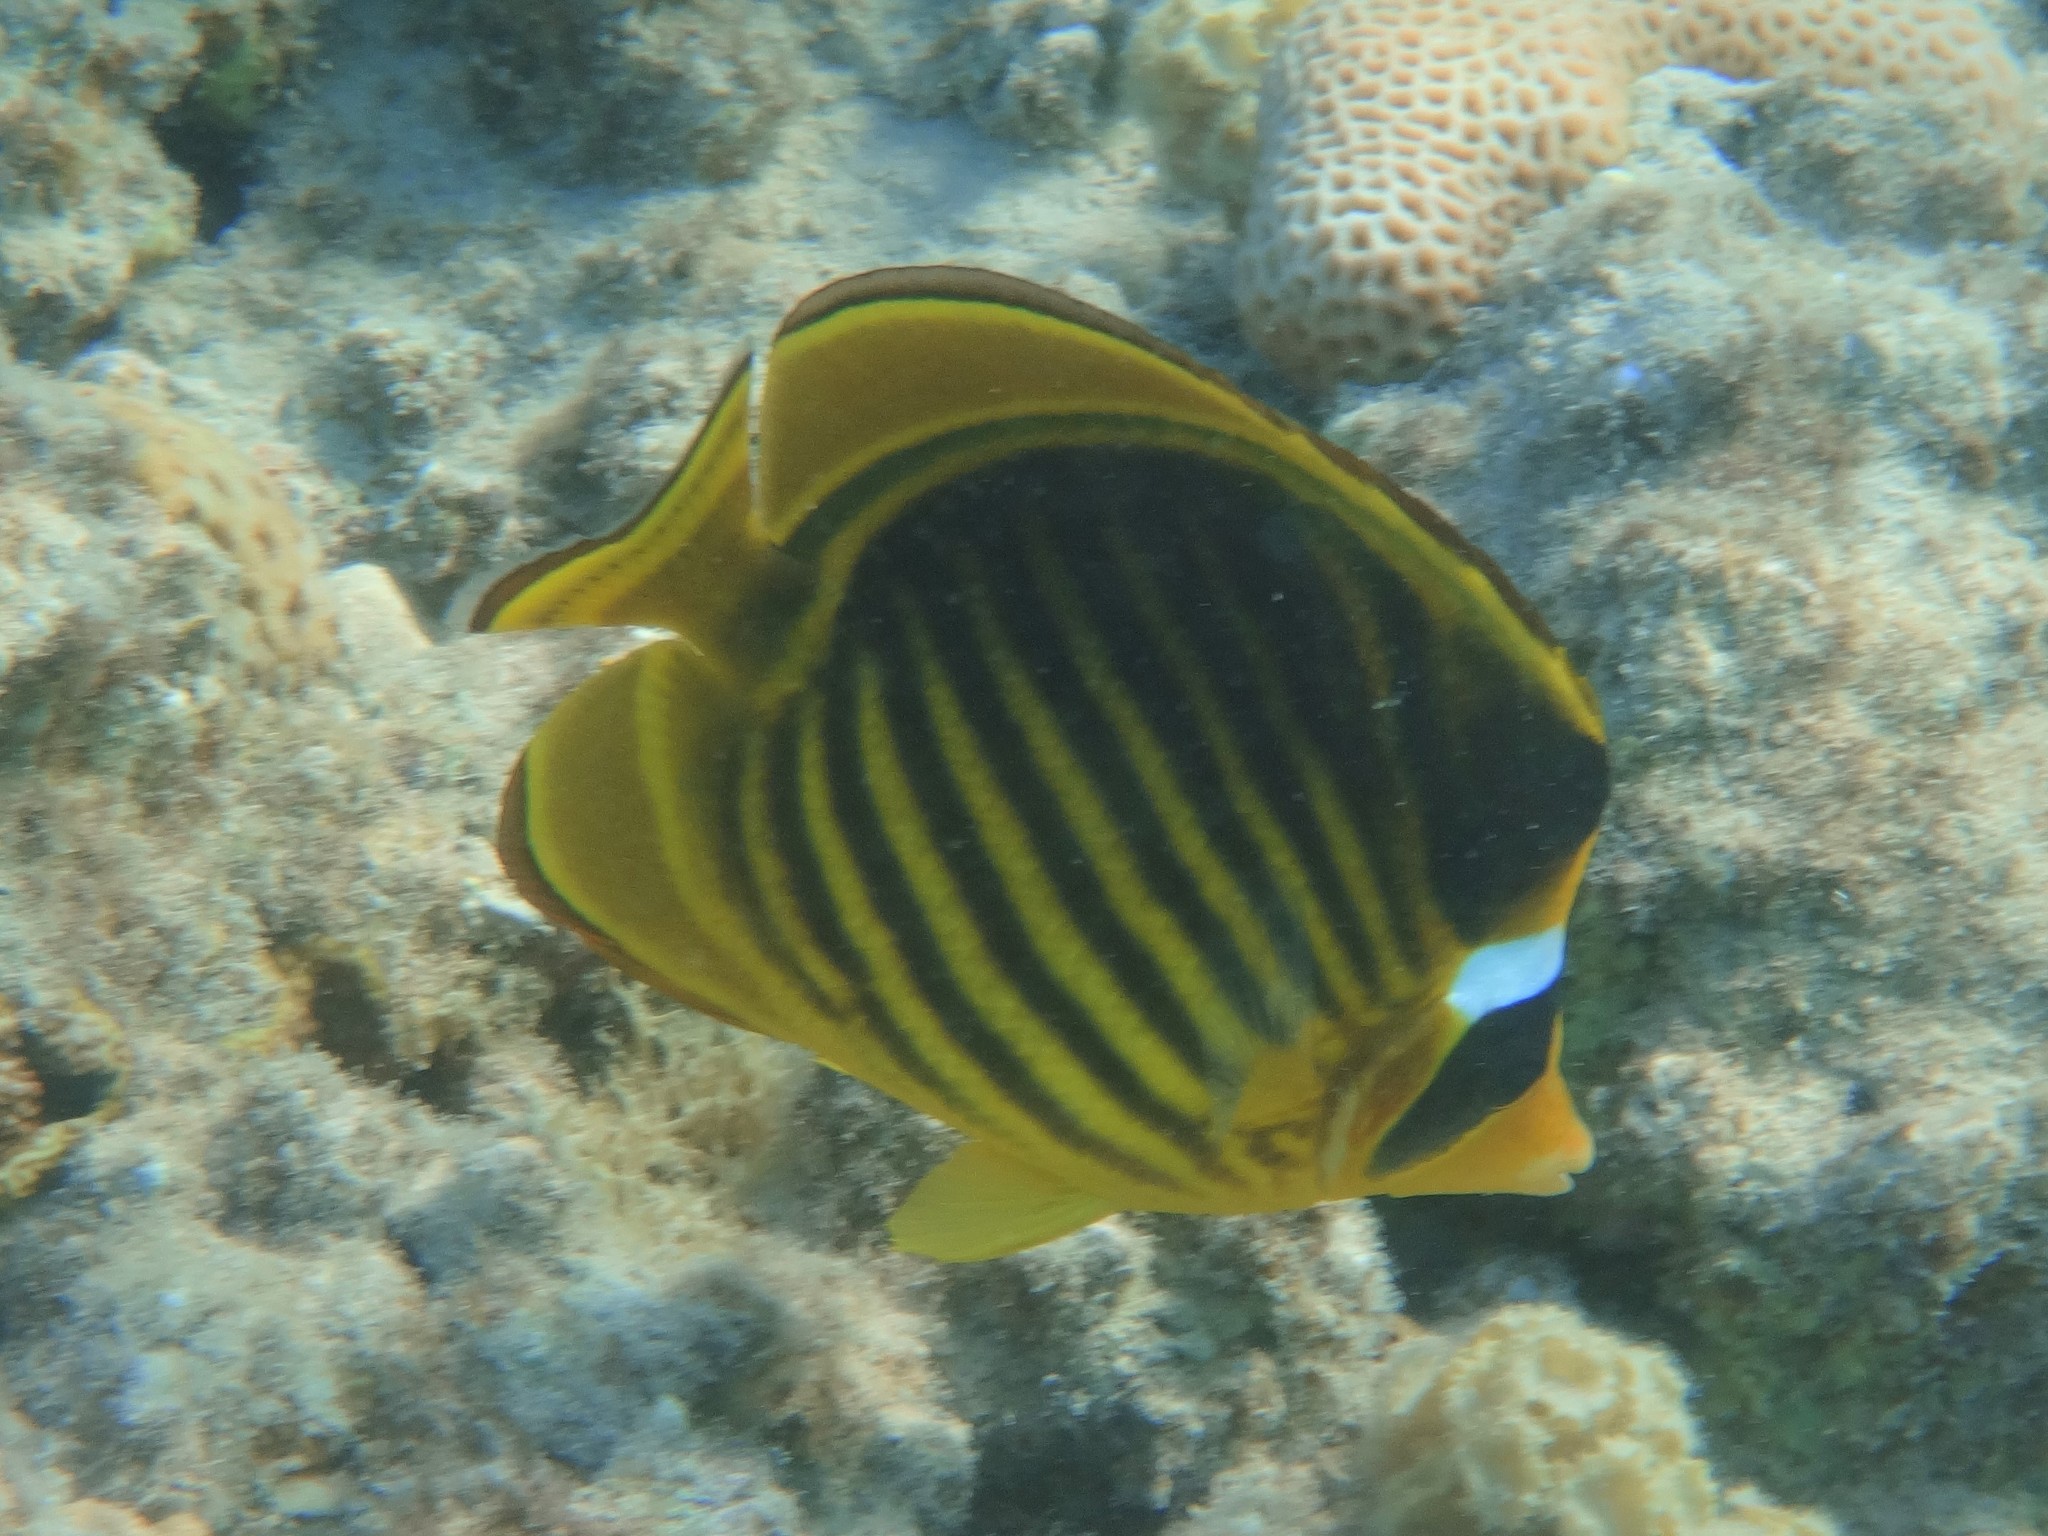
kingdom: Animalia
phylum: Chordata
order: Perciformes
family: Chaetodontidae
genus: Chaetodon
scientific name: Chaetodon fasciatus
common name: Diagonal butterflyfish
